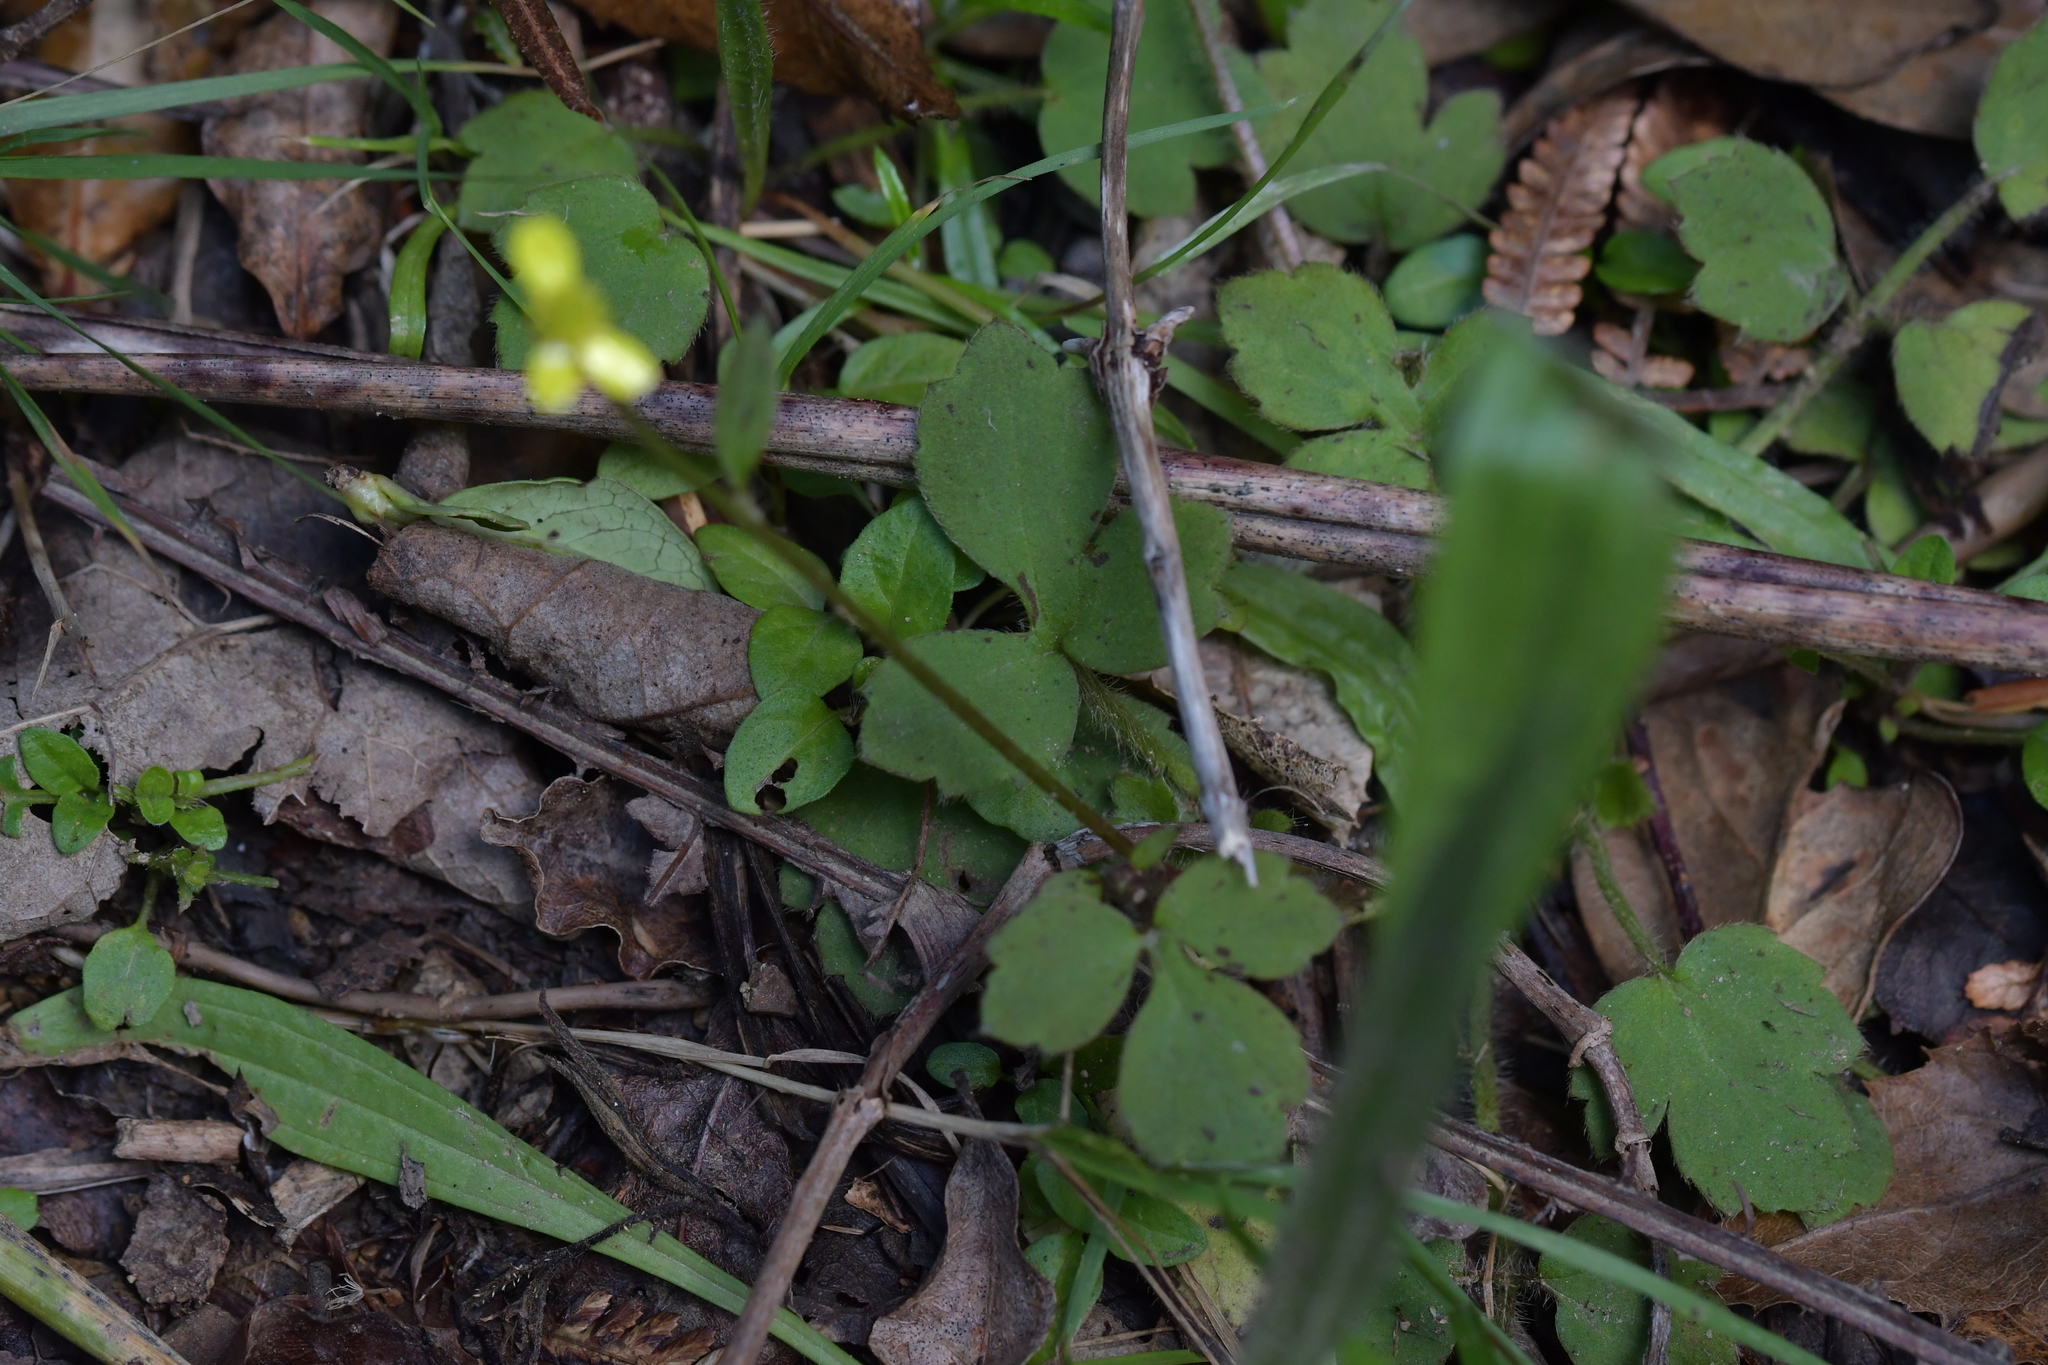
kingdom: Plantae
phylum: Tracheophyta
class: Magnoliopsida
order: Ranunculales
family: Ranunculaceae
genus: Ranunculus
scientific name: Ranunculus reflexus
